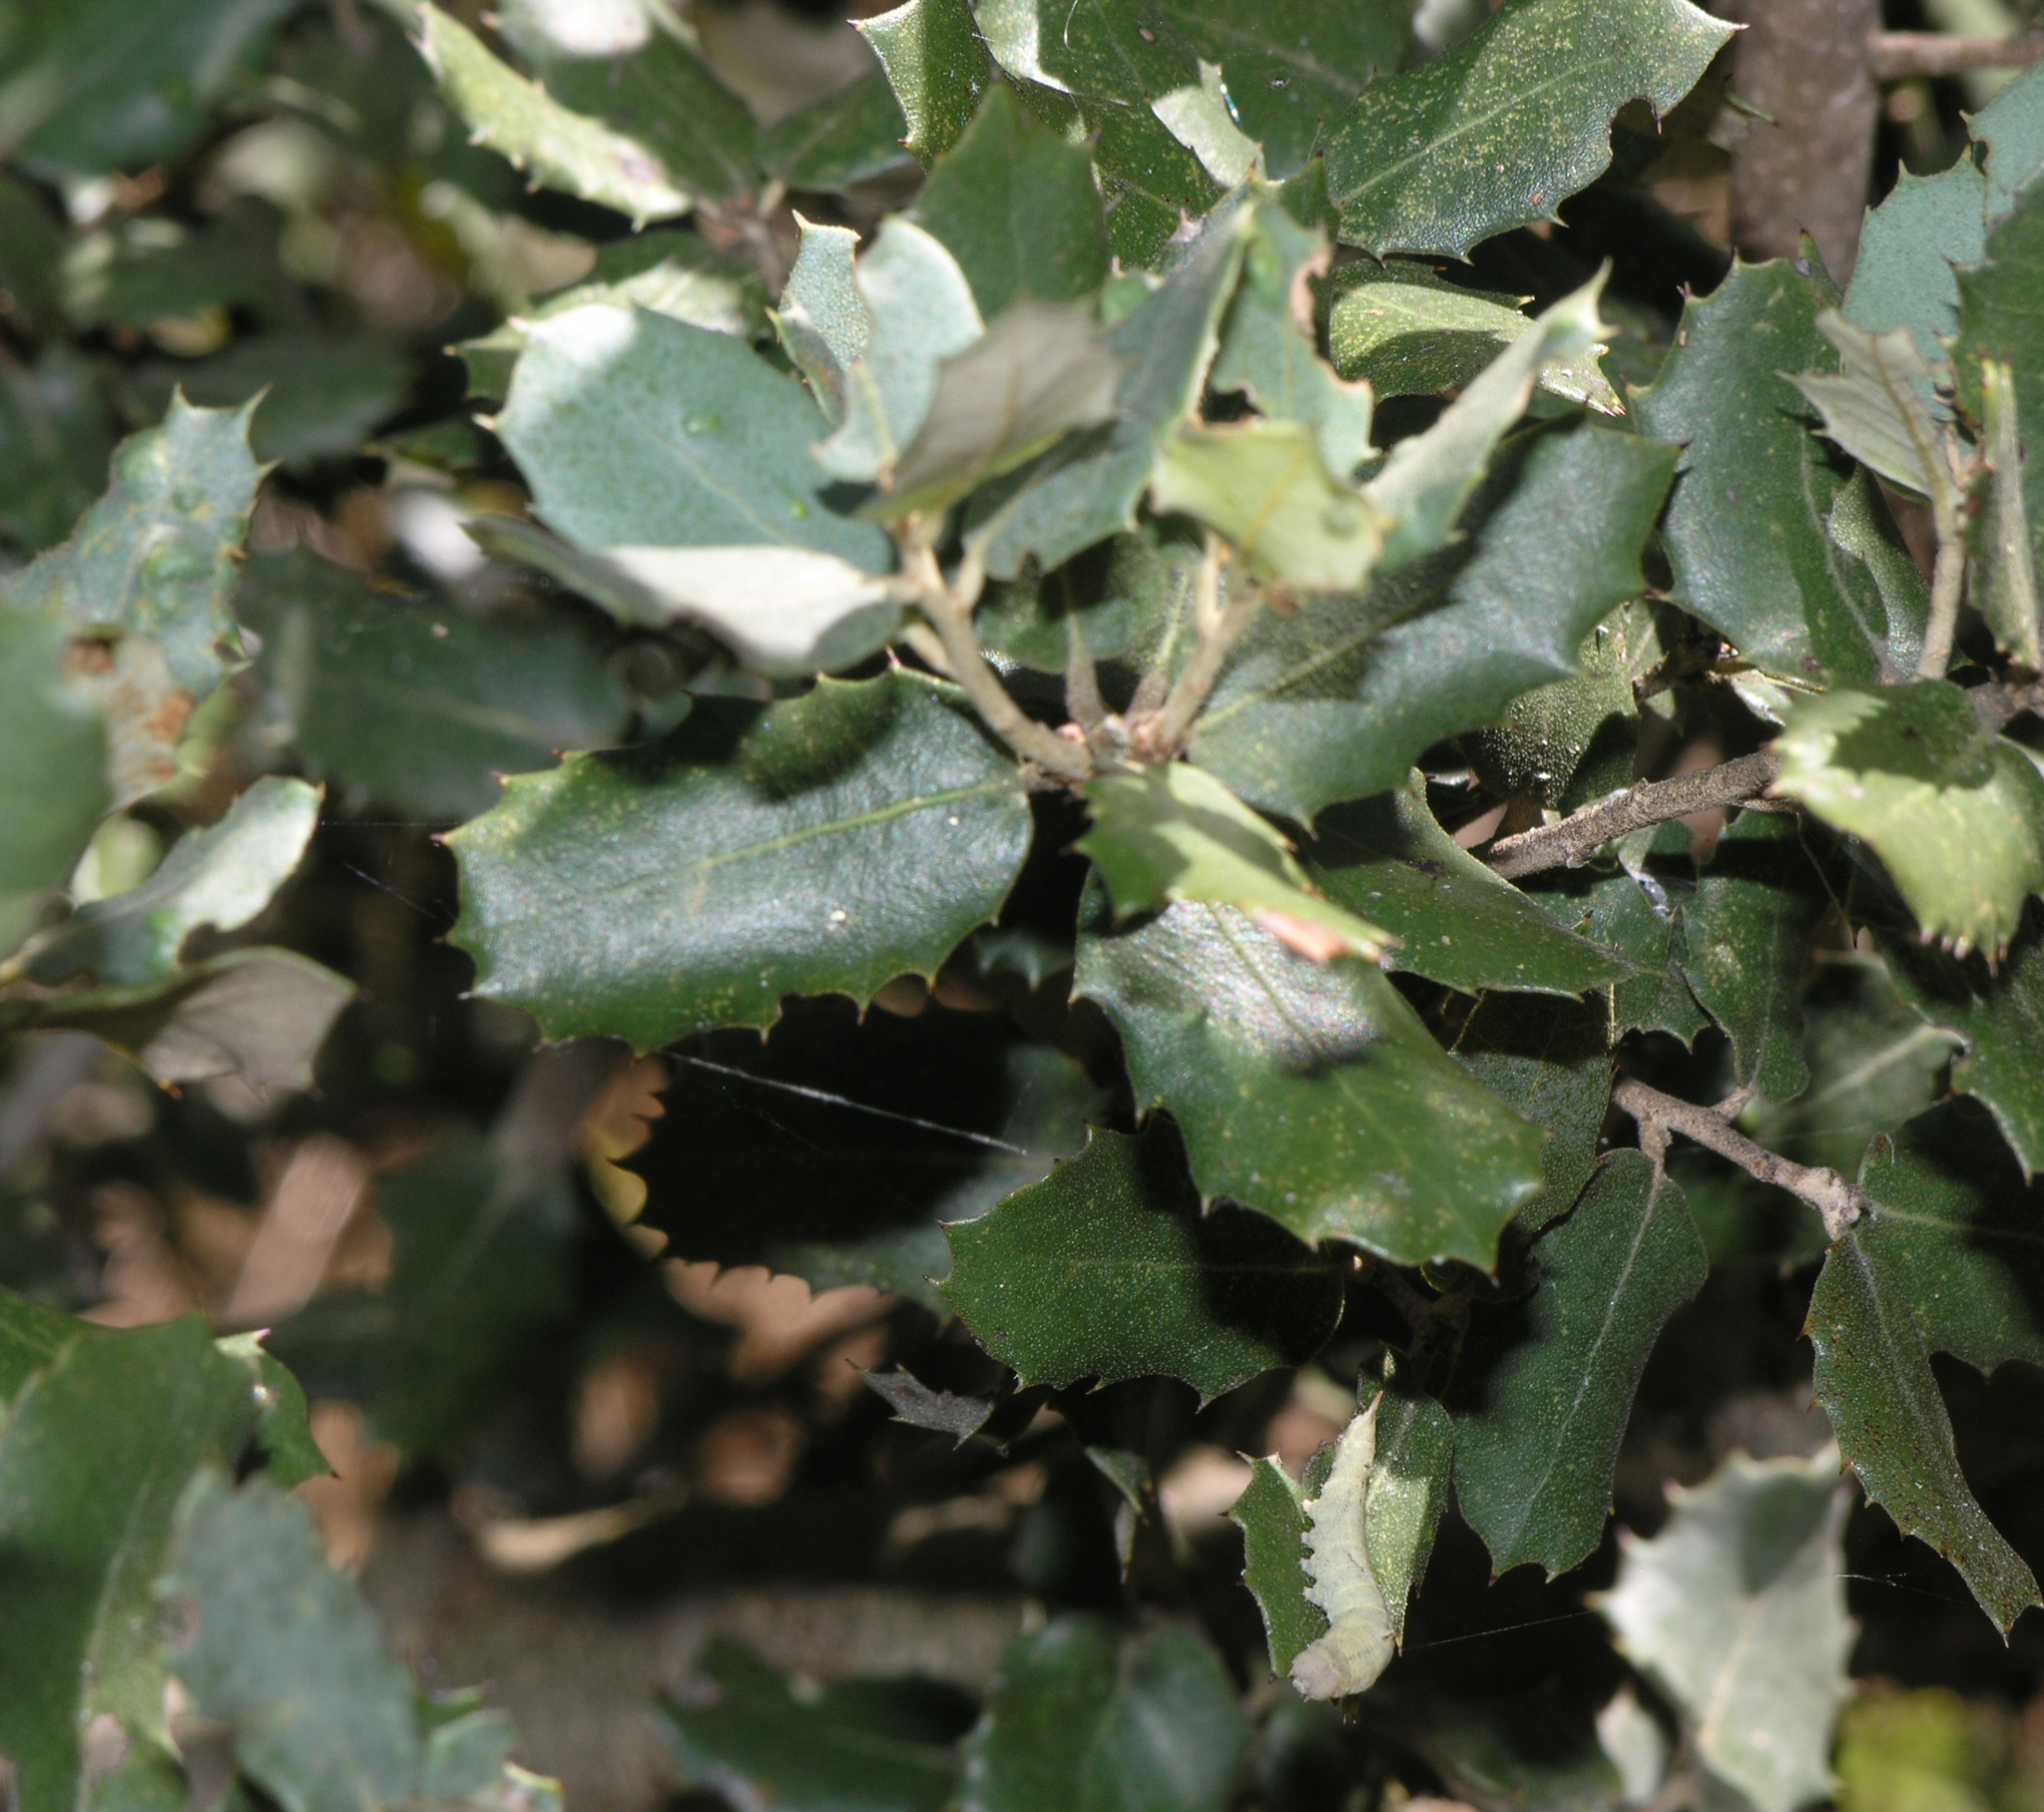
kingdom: Plantae
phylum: Tracheophyta
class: Magnoliopsida
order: Fagales
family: Fagaceae
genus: Quercus
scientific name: Quercus rotundifolia
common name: Holm oak
